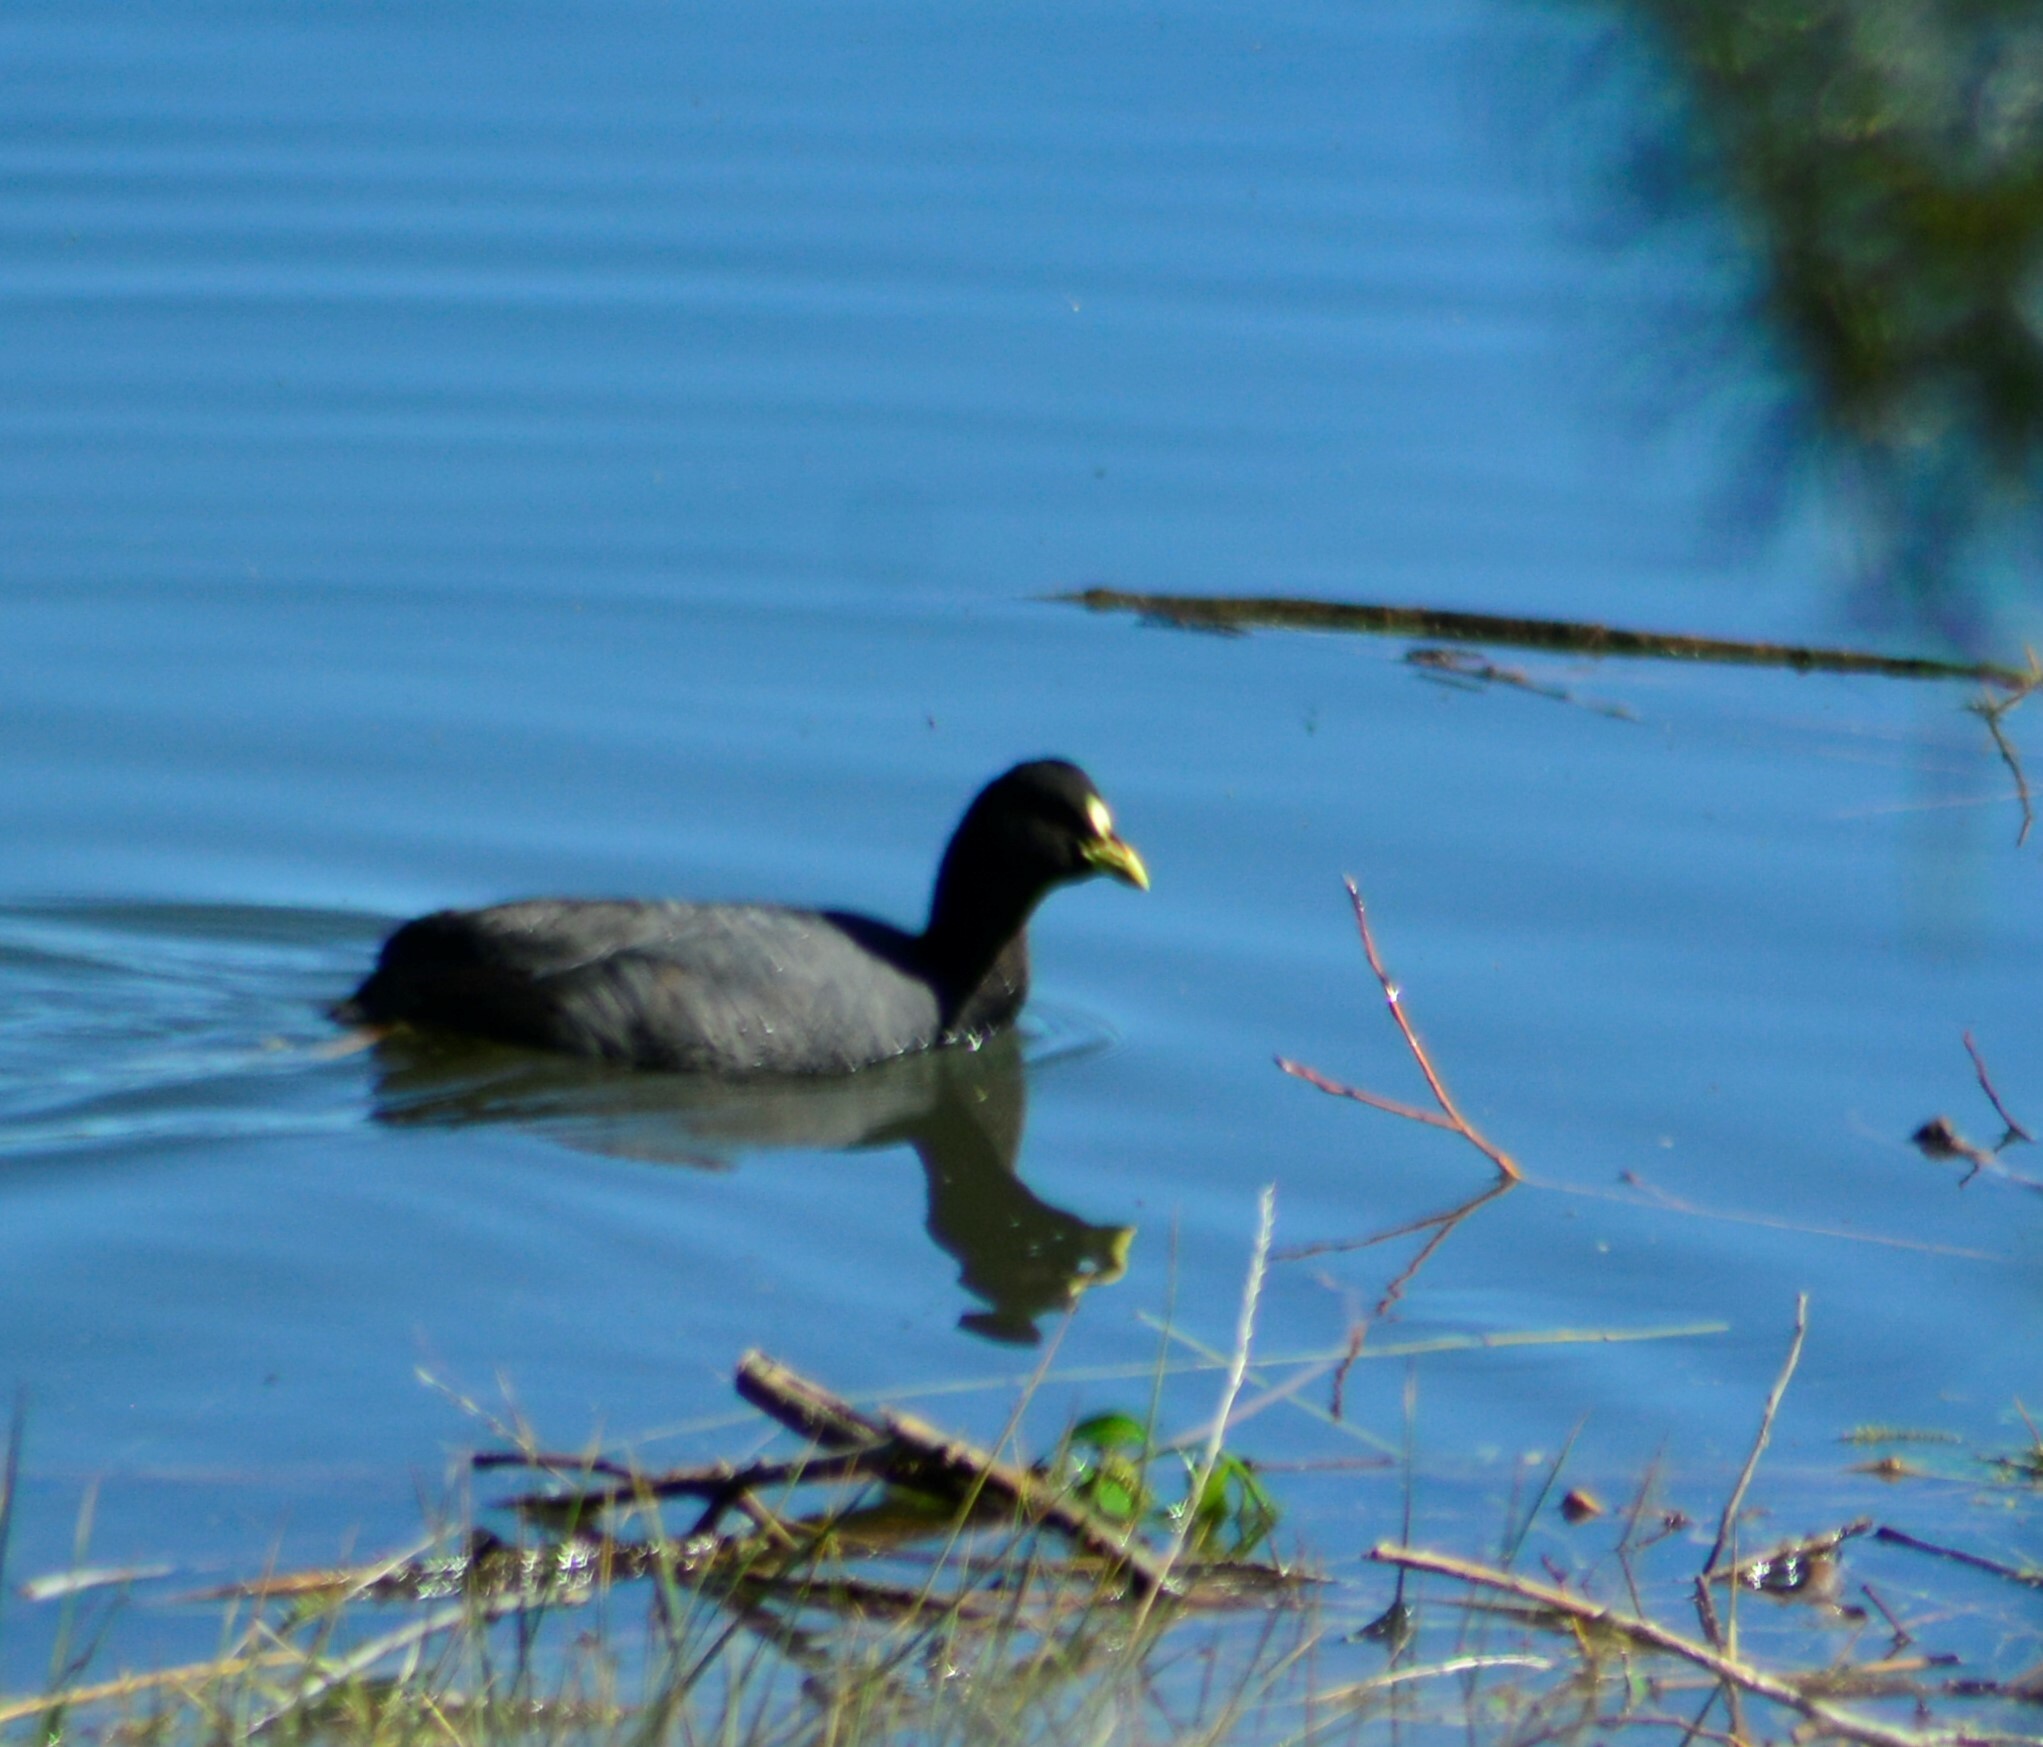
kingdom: Animalia
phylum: Chordata
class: Aves
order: Gruiformes
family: Rallidae
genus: Fulica
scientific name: Fulica armillata
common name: Red-gartered coot
